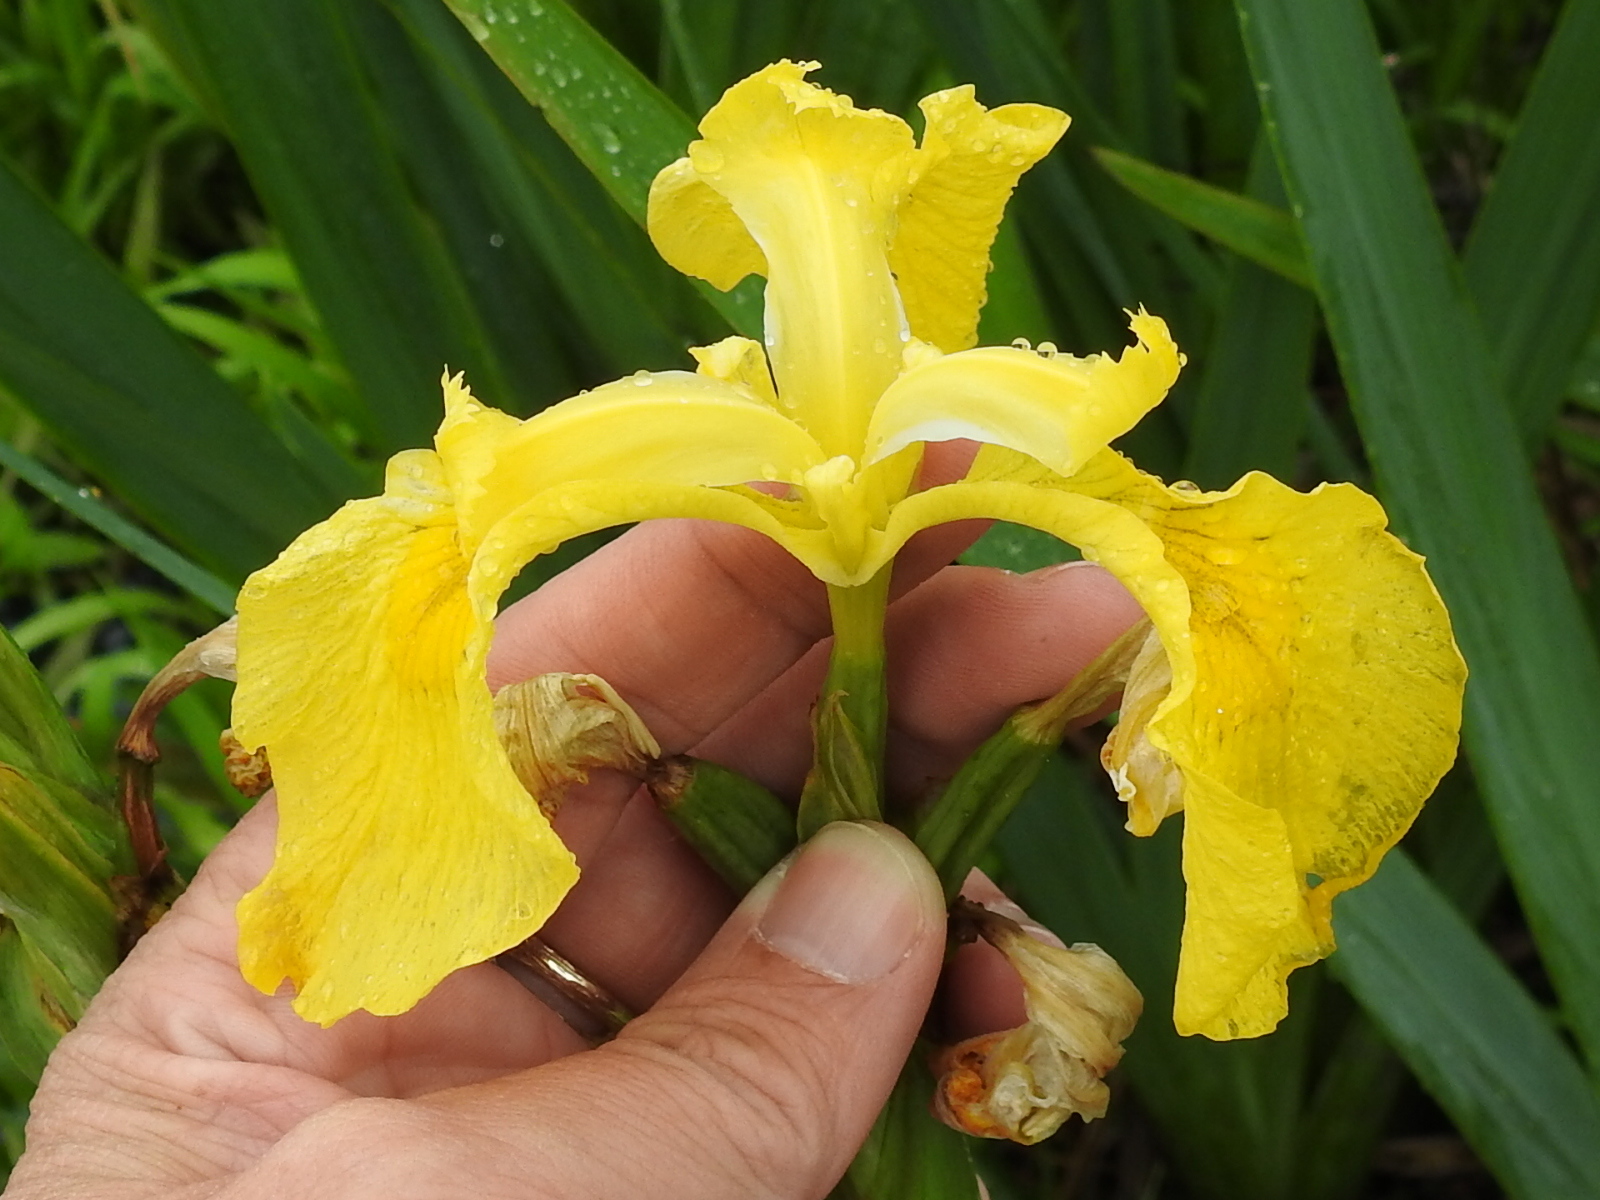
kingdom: Plantae
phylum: Tracheophyta
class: Liliopsida
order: Asparagales
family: Iridaceae
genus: Iris
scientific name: Iris pseudacorus
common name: Yellow flag
